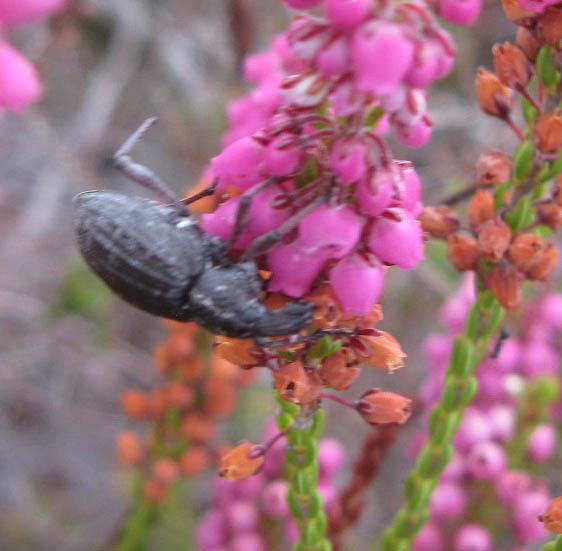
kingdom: Plantae
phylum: Tracheophyta
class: Magnoliopsida
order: Ericales
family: Ericaceae
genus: Erica
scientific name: Erica pulchella
